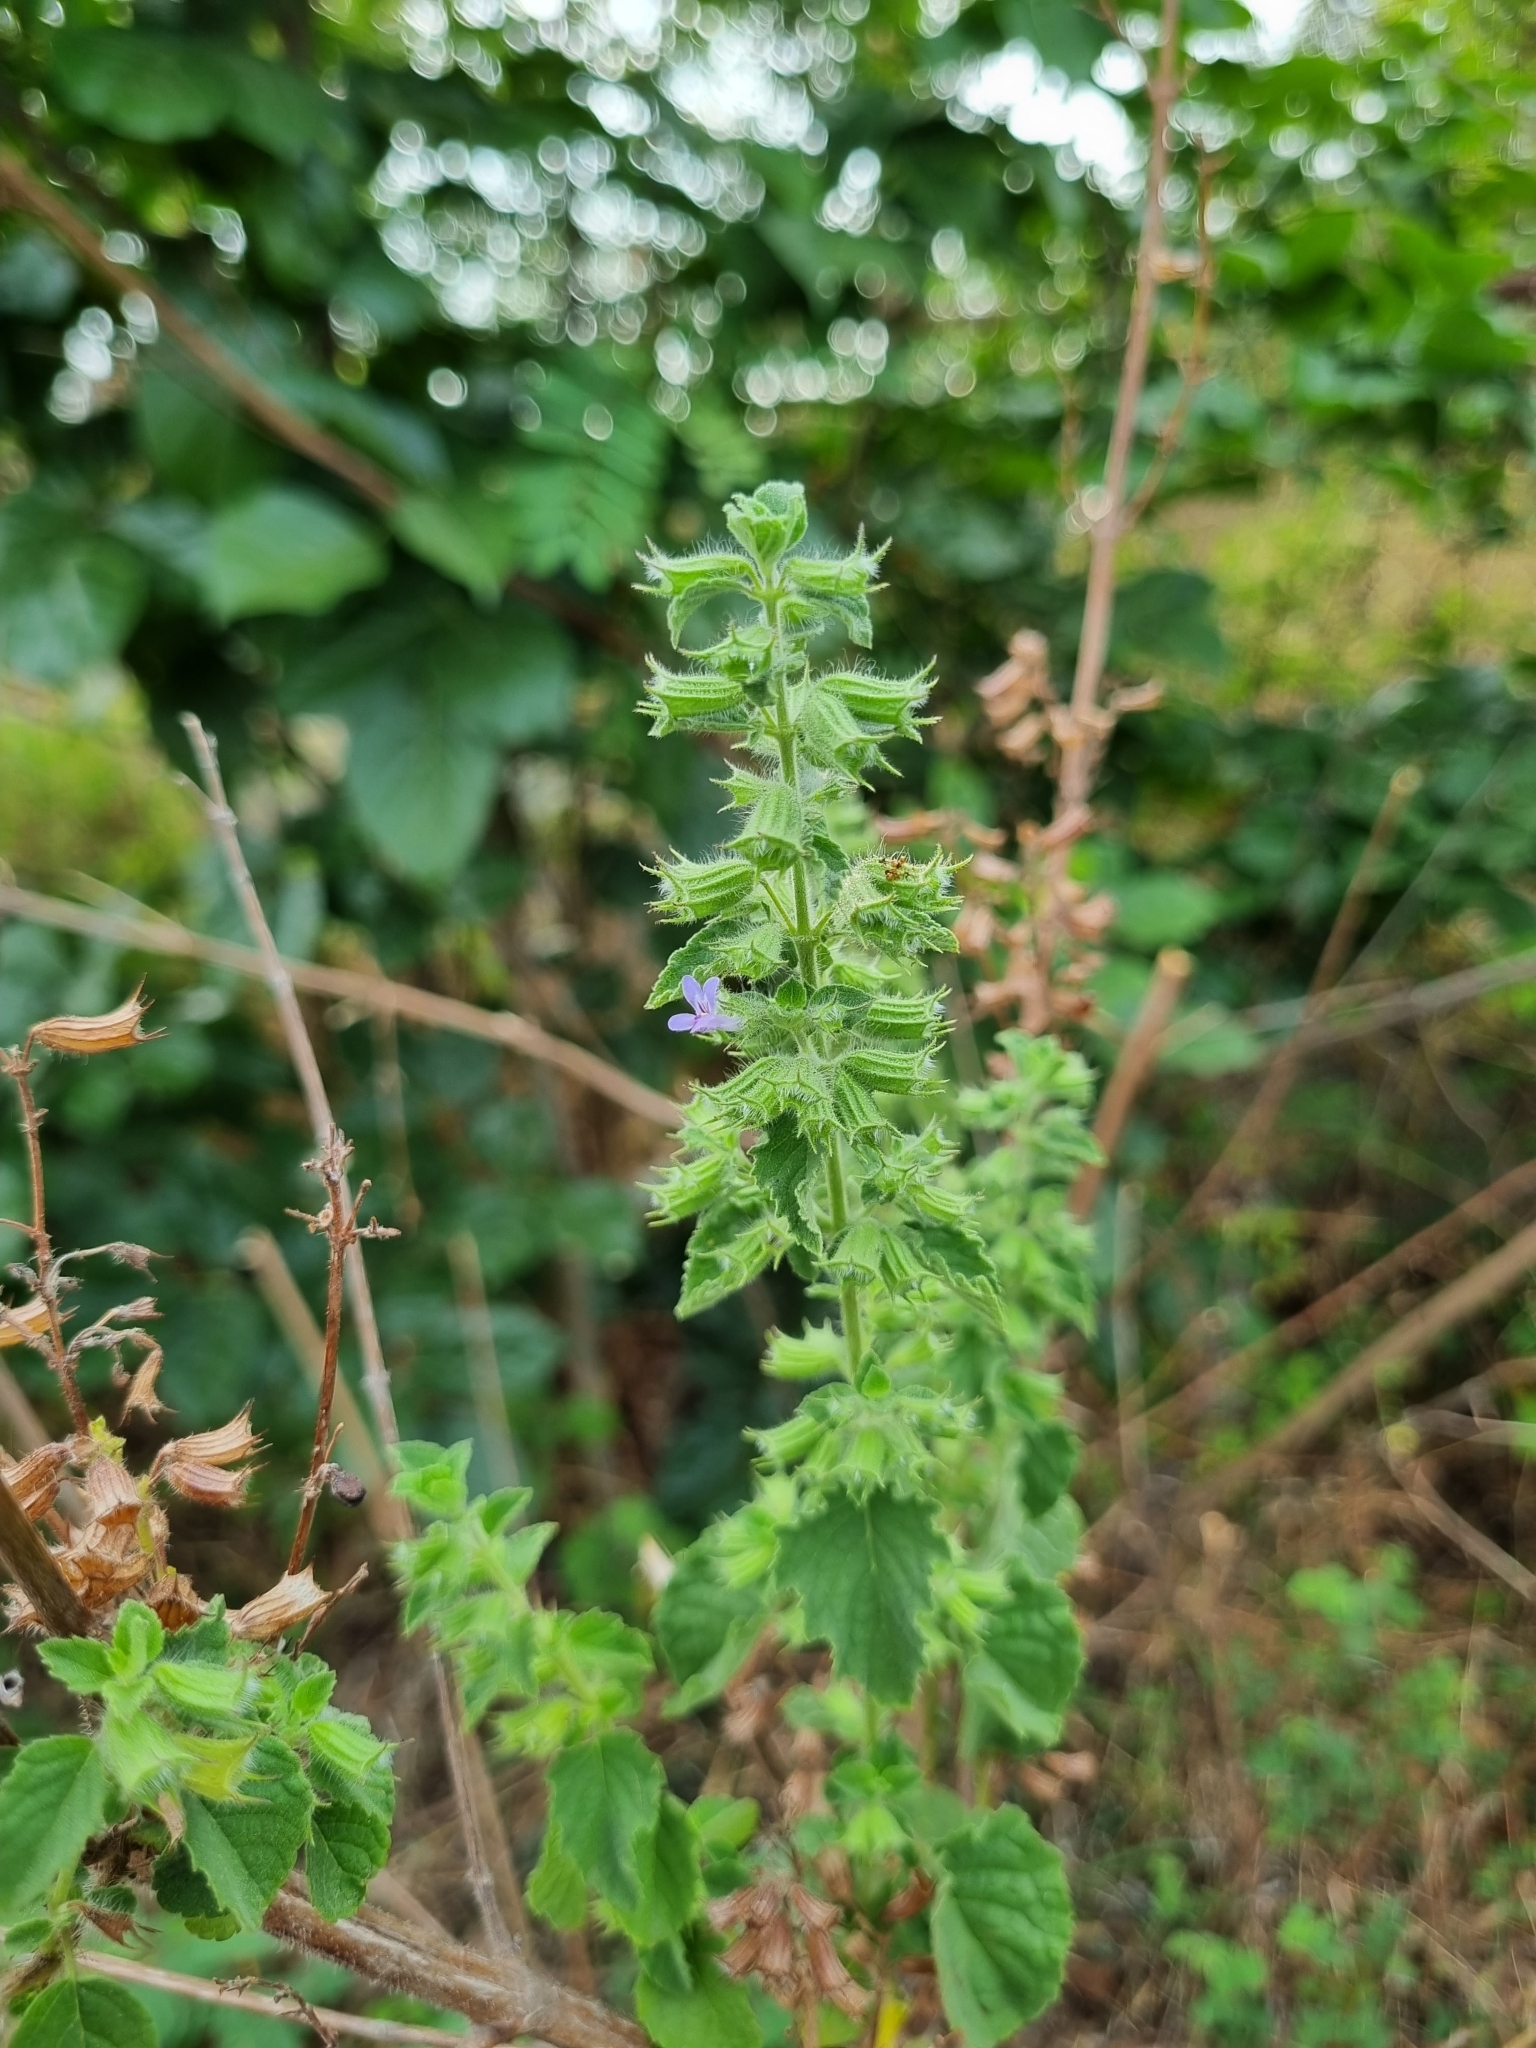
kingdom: Plantae
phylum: Tracheophyta
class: Magnoliopsida
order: Lamiales
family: Lamiaceae
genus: Mesosphaerum
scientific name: Mesosphaerum suaveolens
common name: Pignut
